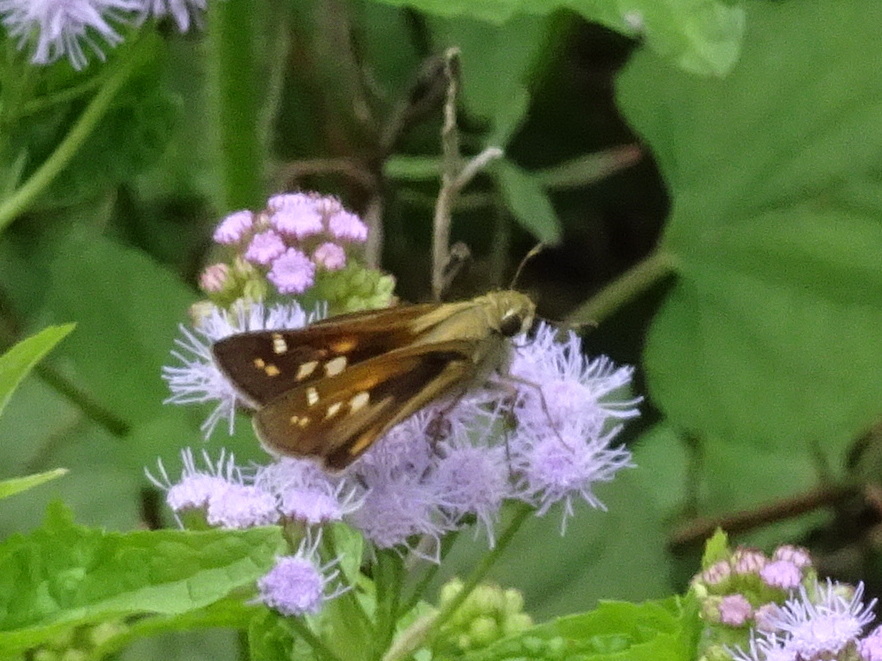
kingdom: Animalia
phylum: Arthropoda
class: Insecta
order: Lepidoptera
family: Hesperiidae
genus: Atalopedes
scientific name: Atalopedes
